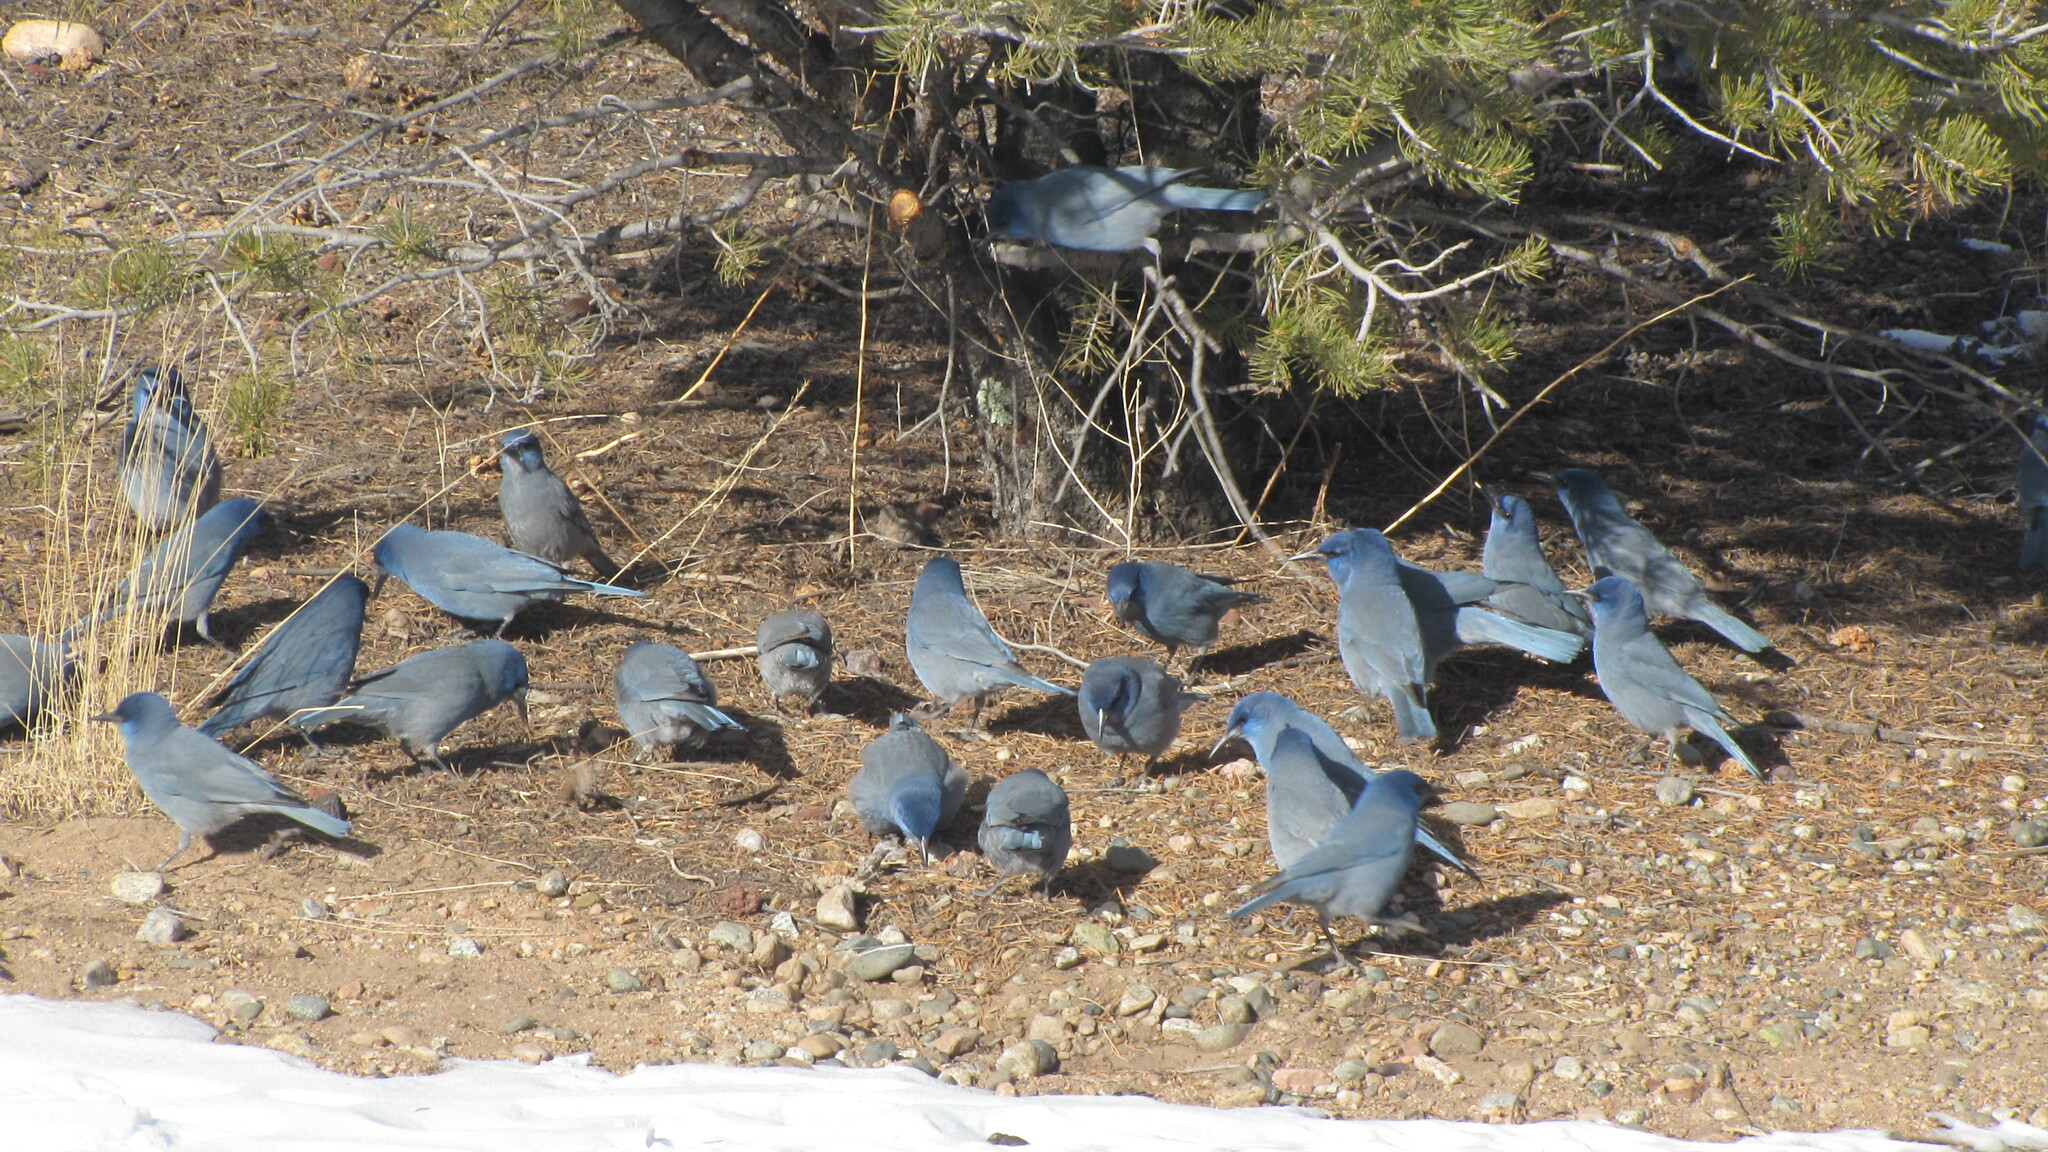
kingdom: Animalia
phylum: Chordata
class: Aves
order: Passeriformes
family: Corvidae
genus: Gymnorhinus
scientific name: Gymnorhinus cyanocephalus
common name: Pinyon jay
